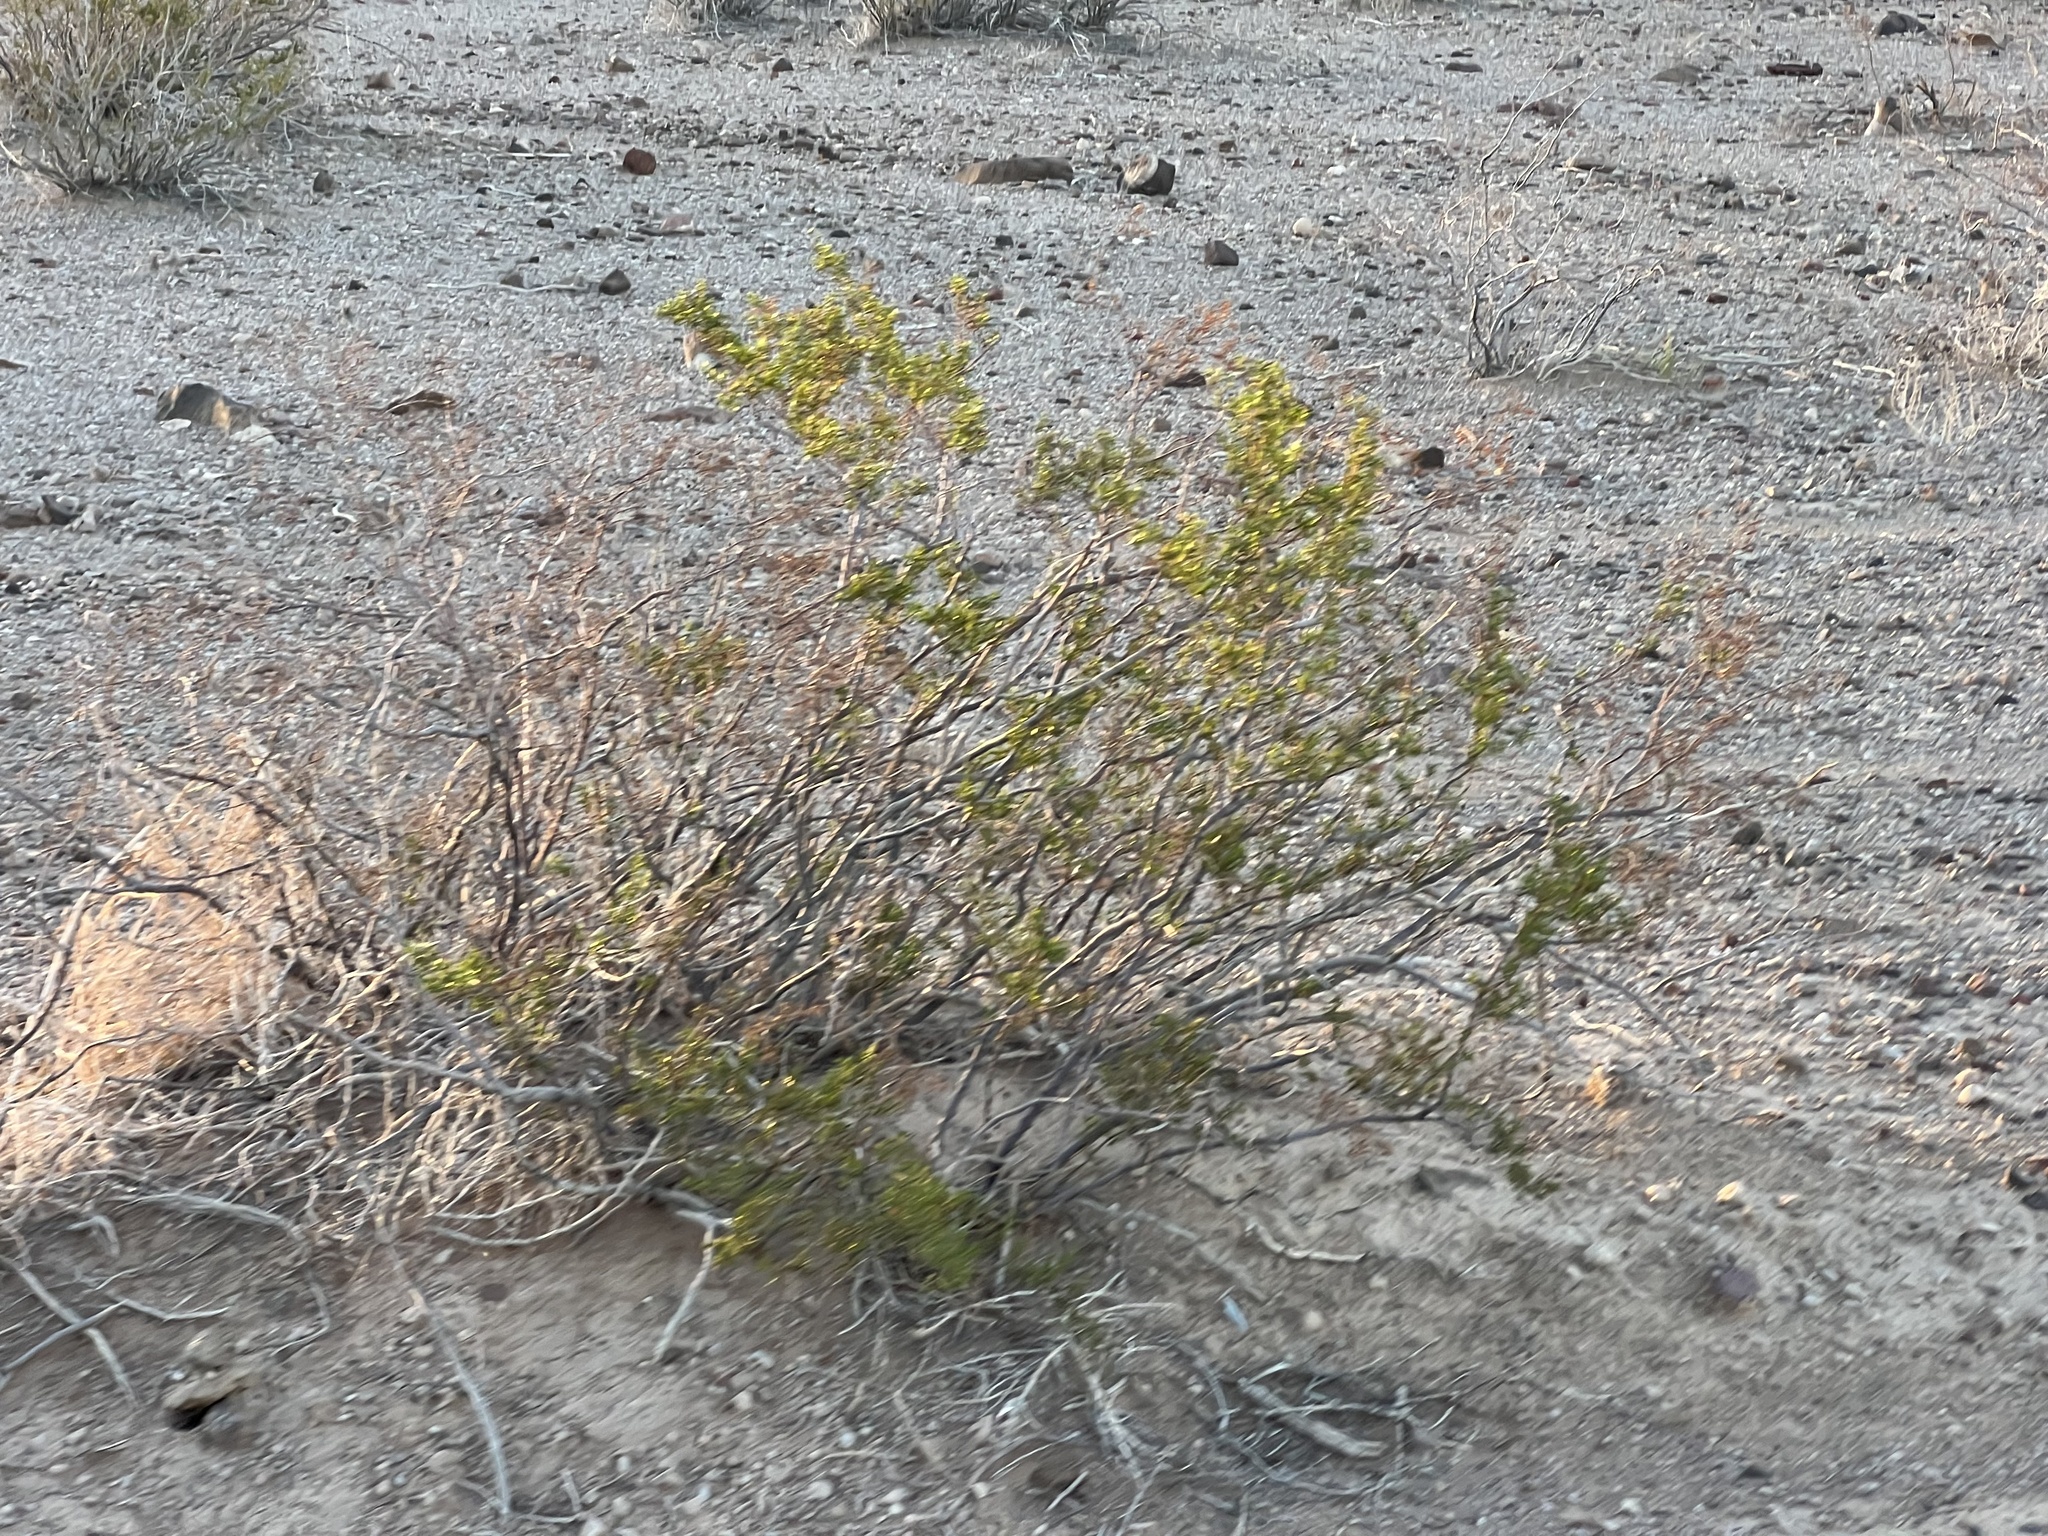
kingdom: Plantae
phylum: Tracheophyta
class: Magnoliopsida
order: Zygophyllales
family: Zygophyllaceae
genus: Larrea
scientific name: Larrea tridentata
